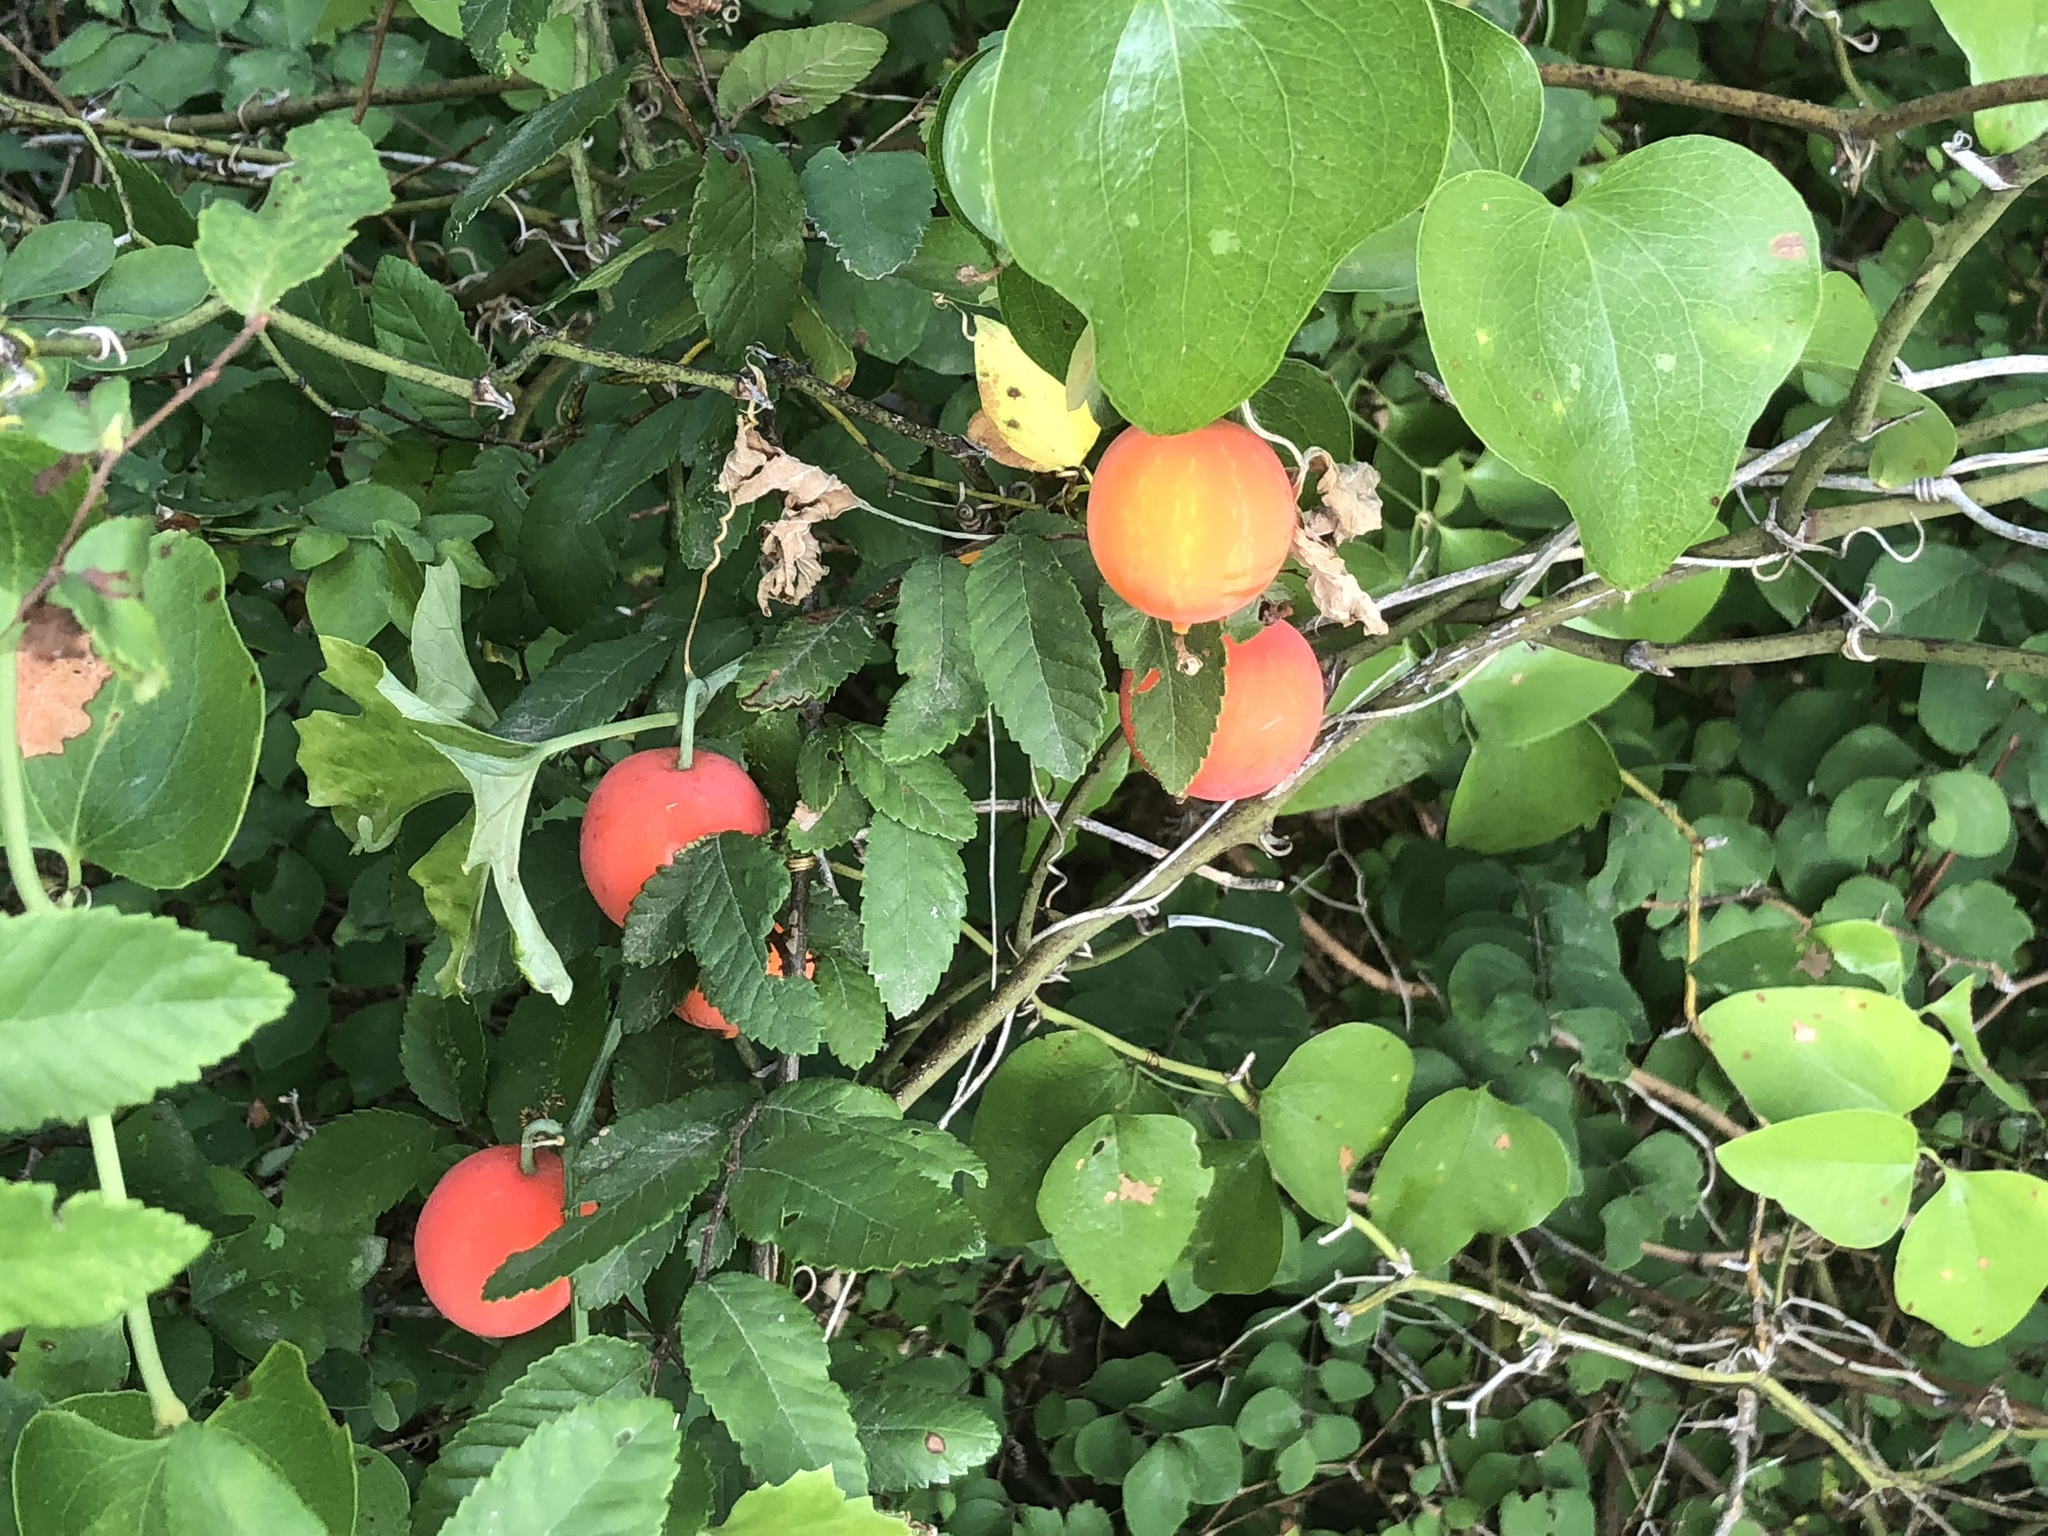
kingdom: Plantae
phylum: Tracheophyta
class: Magnoliopsida
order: Cucurbitales
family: Cucurbitaceae
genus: Ibervillea
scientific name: Ibervillea lindheimeri
